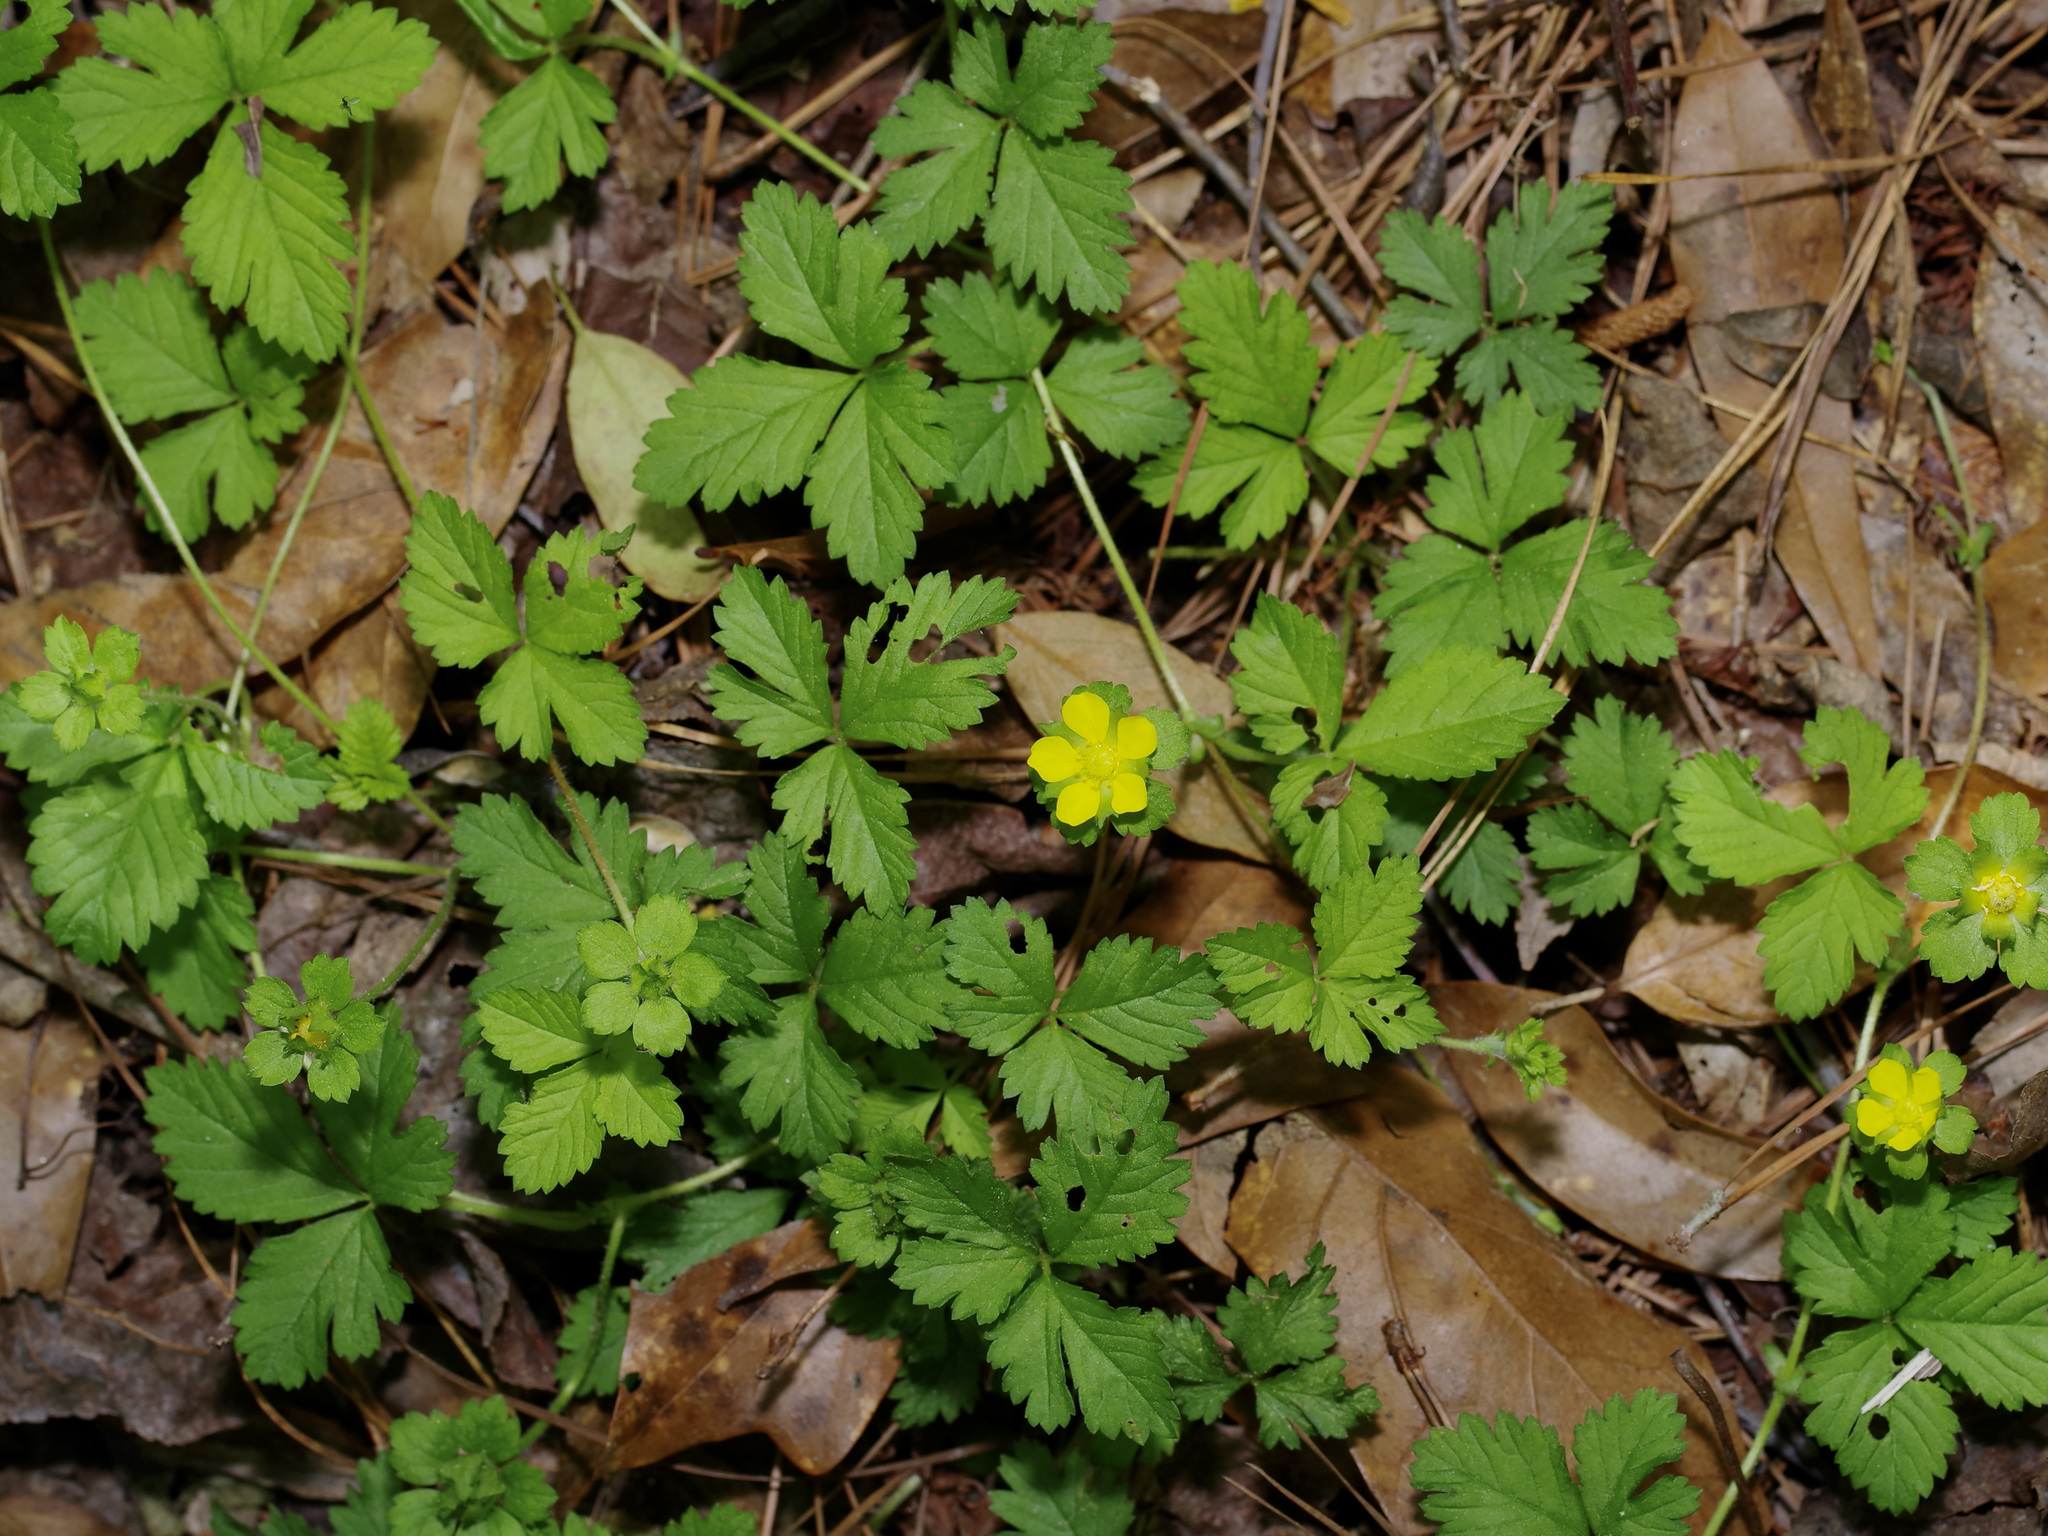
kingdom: Plantae
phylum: Tracheophyta
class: Magnoliopsida
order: Rosales
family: Rosaceae
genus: Potentilla
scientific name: Potentilla indica
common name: Yellow-flowered strawberry
